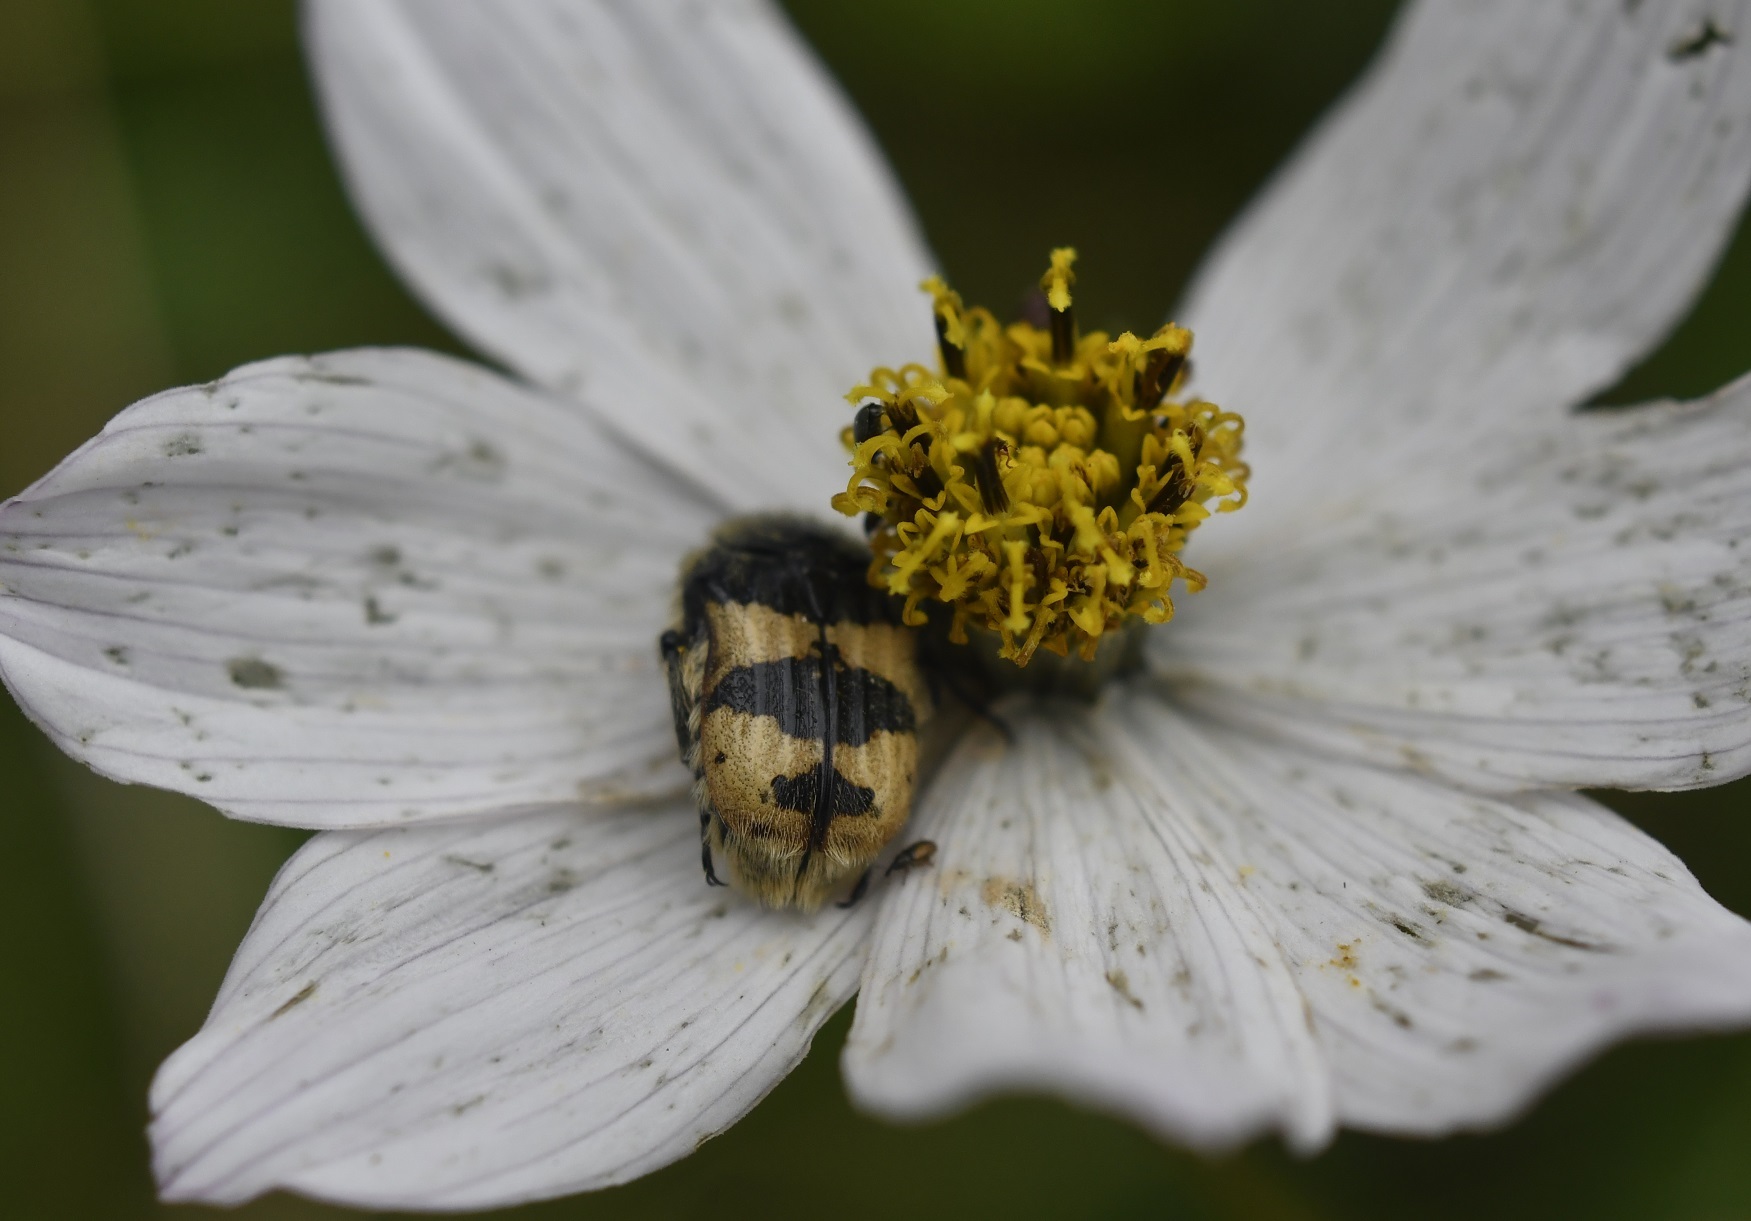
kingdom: Animalia
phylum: Arthropoda
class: Insecta
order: Coleoptera
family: Scarabaeidae
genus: Euphoria
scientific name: Euphoria basalis
